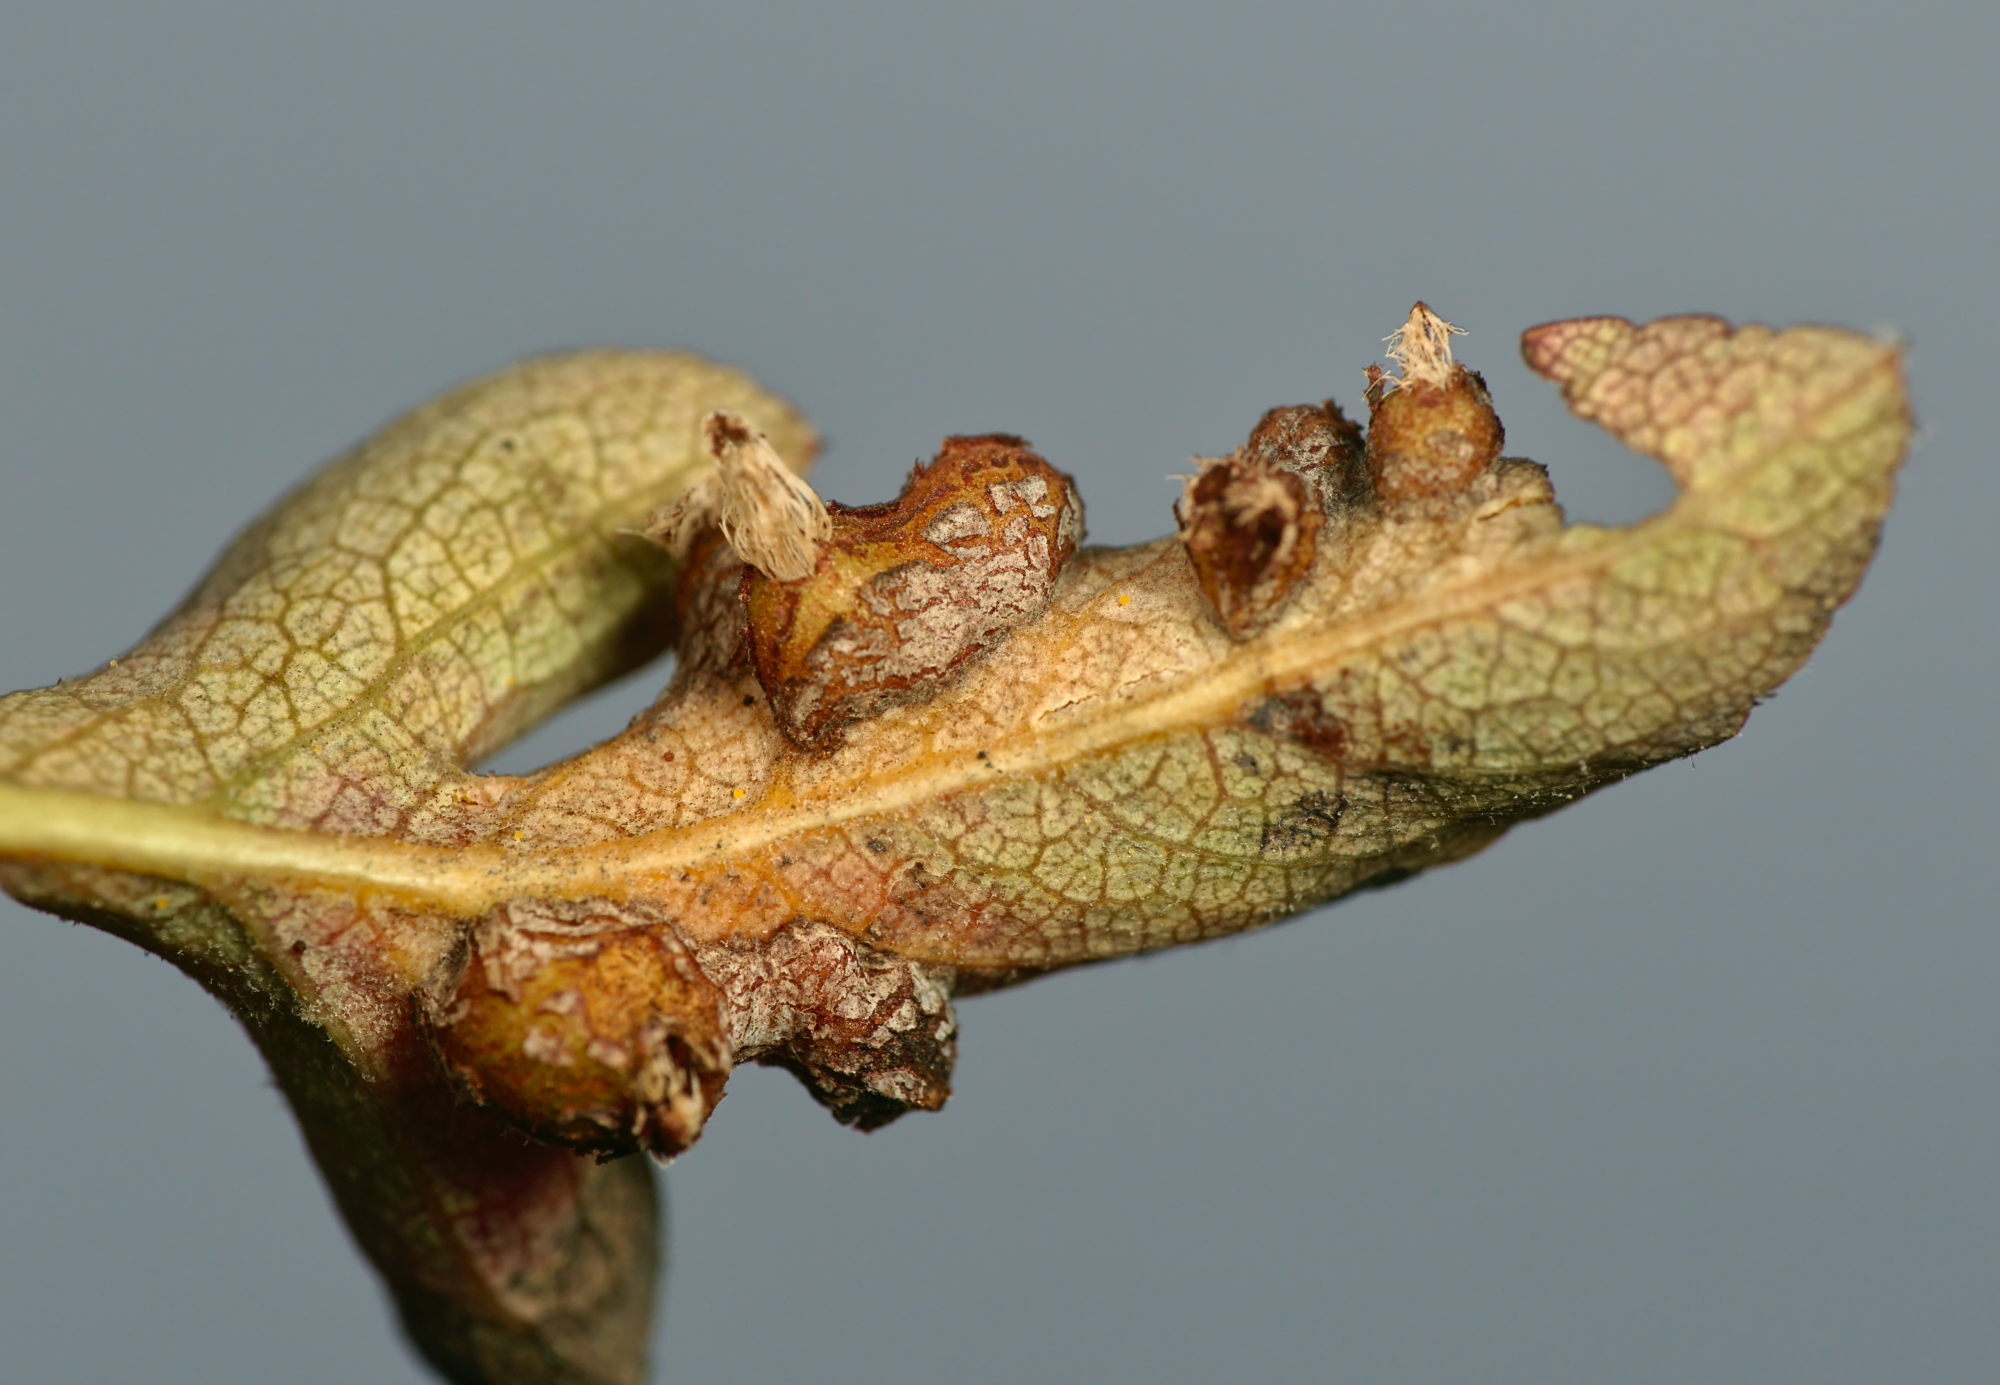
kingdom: Plantae
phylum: Tracheophyta
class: Magnoliopsida
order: Rosales
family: Rosaceae
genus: Pyrus
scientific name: Pyrus spinosa
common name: Almond-leaf pear
